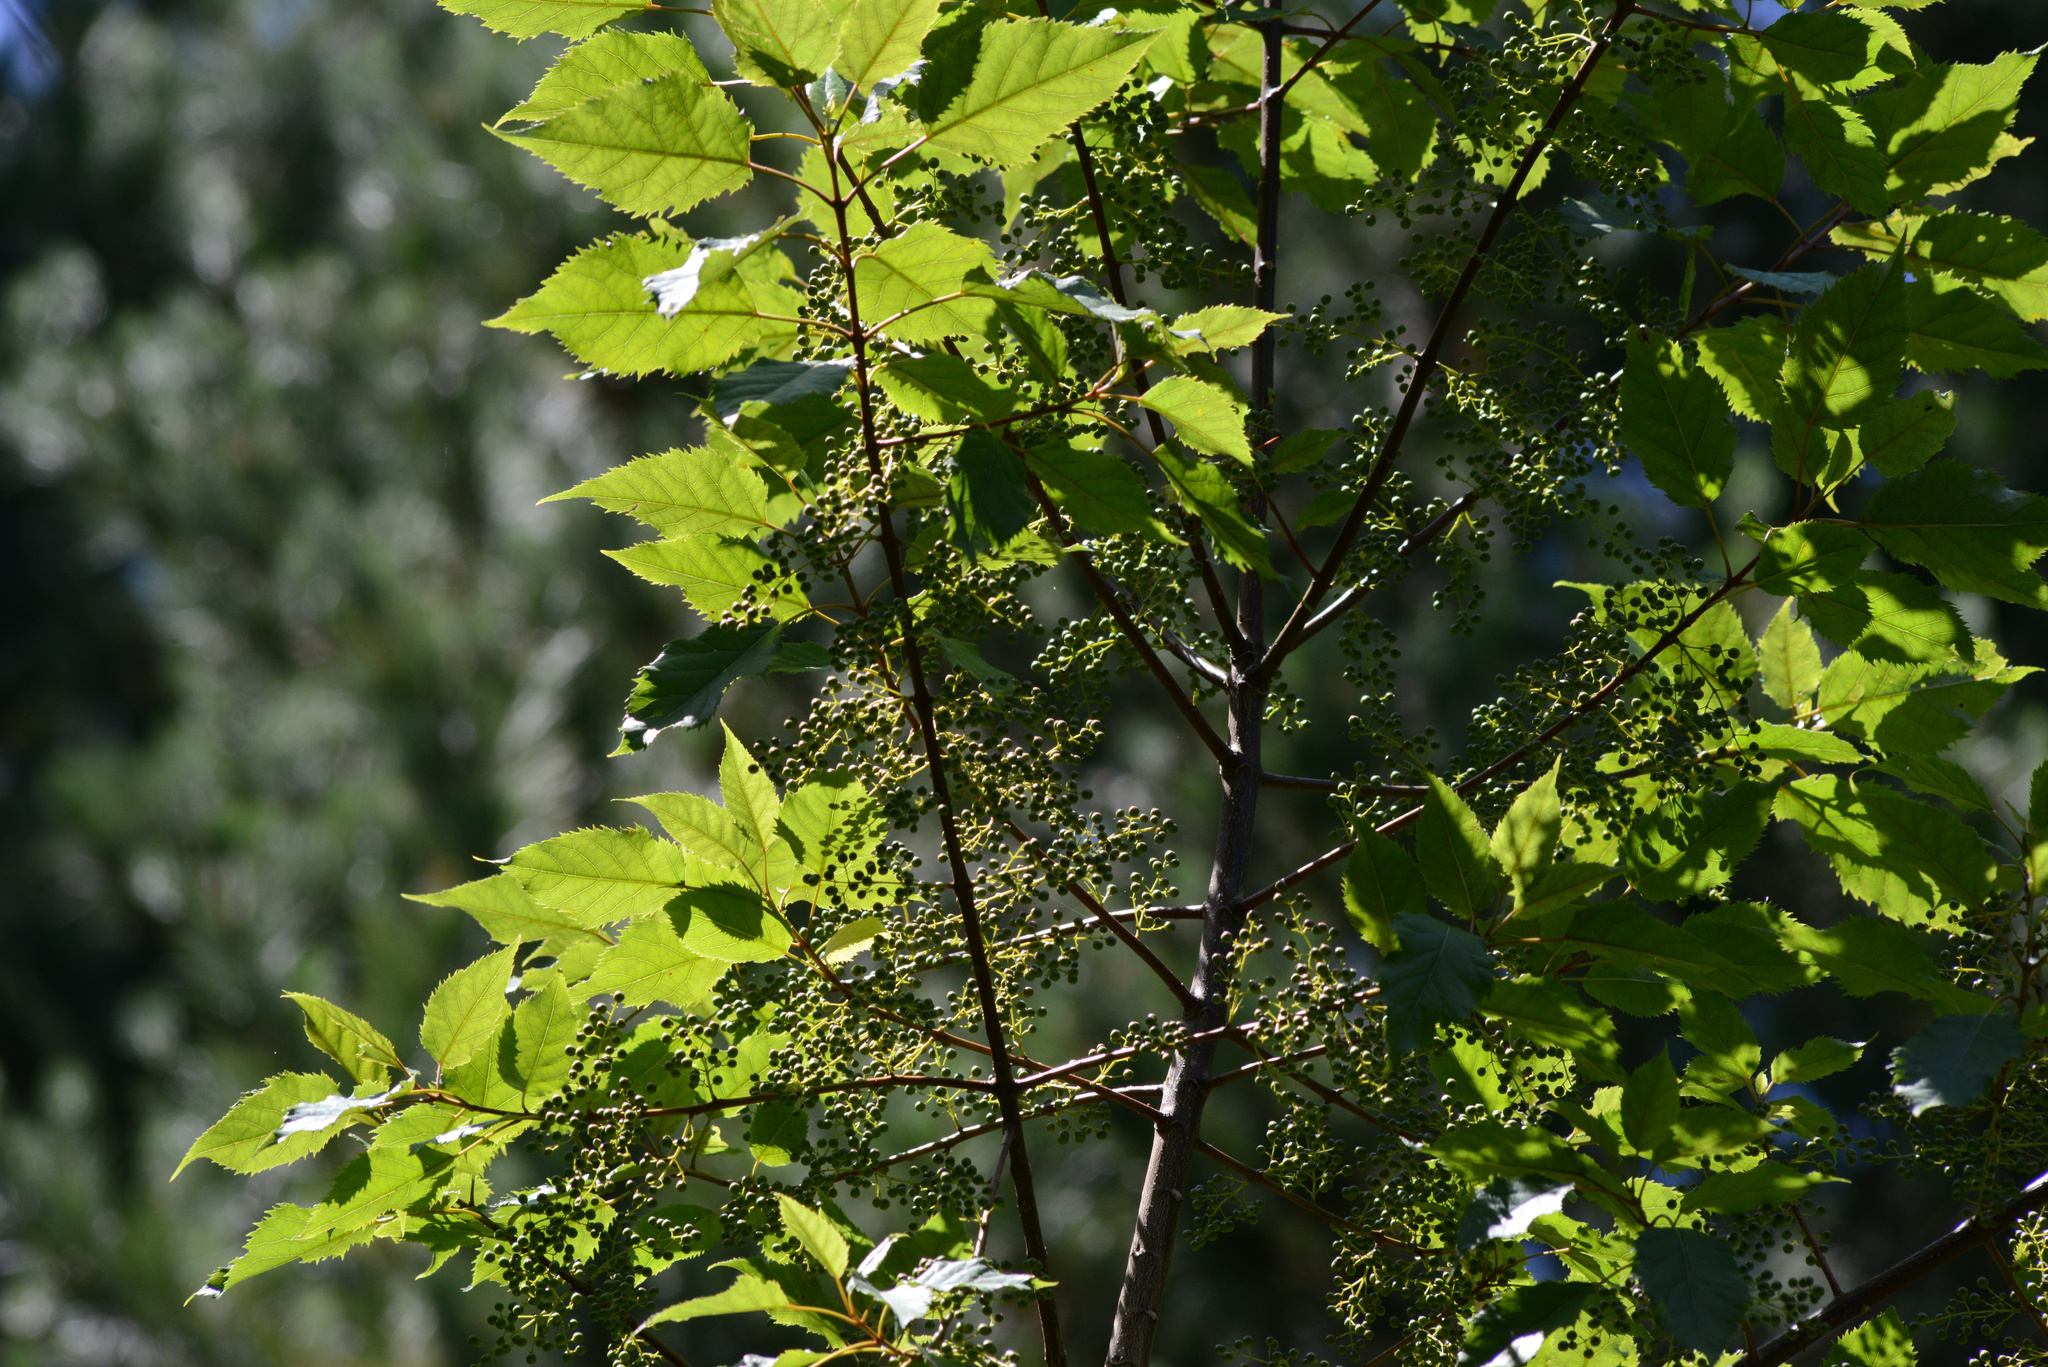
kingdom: Plantae
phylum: Tracheophyta
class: Magnoliopsida
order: Oxalidales
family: Elaeocarpaceae
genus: Aristotelia
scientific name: Aristotelia serrata
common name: New zealand wineberry
